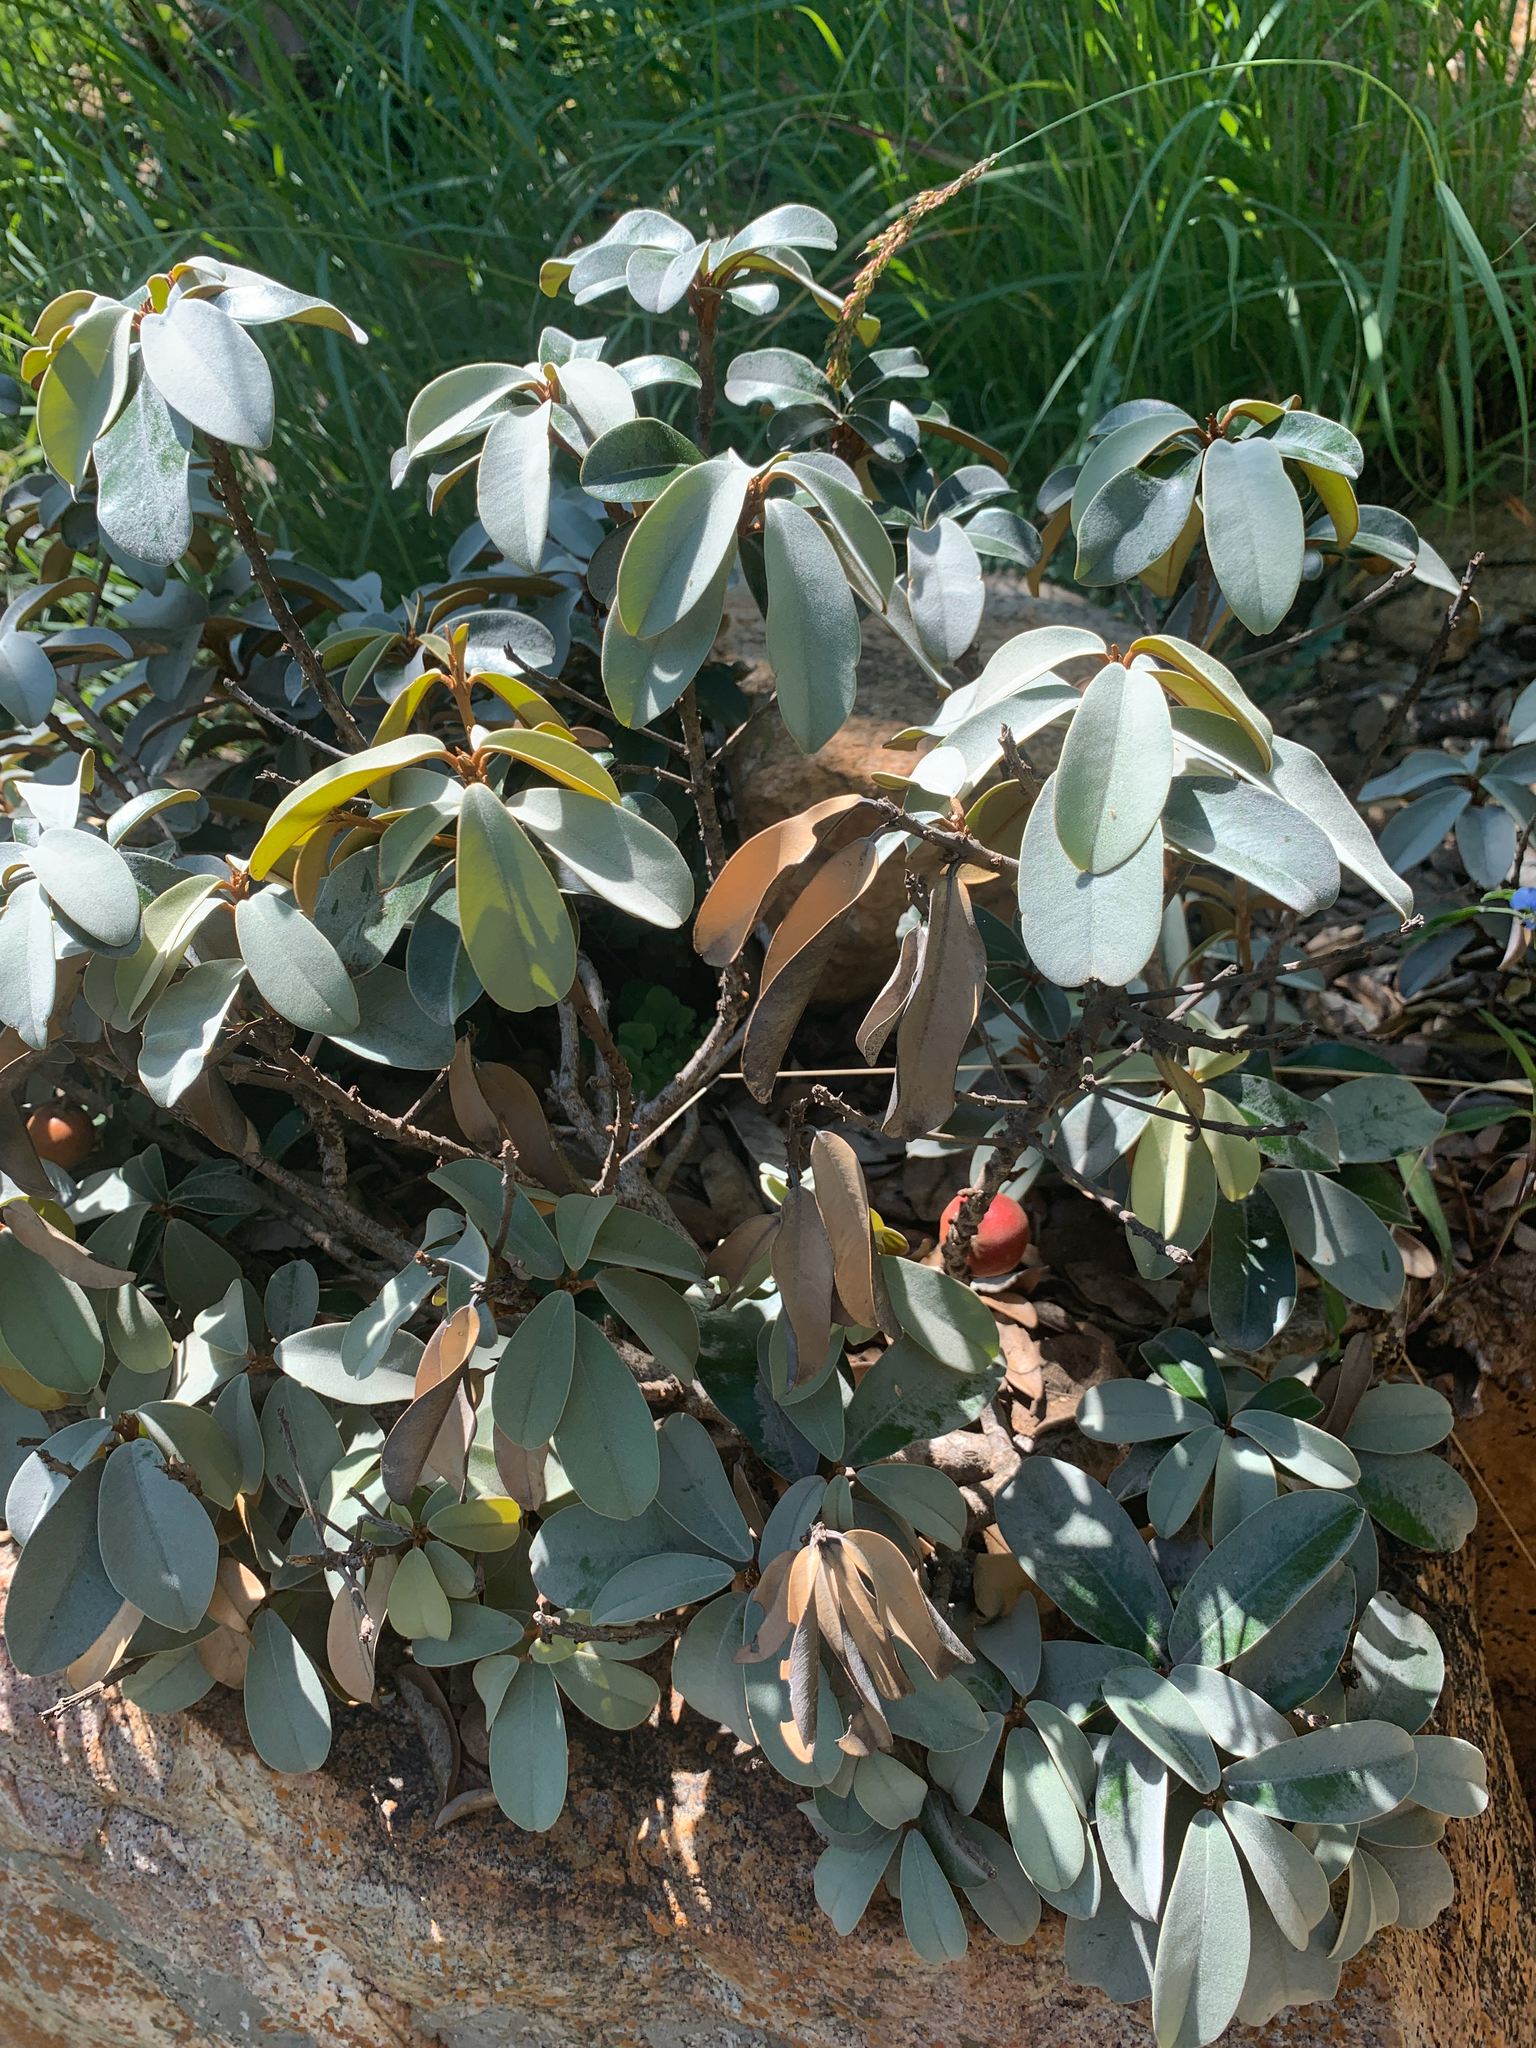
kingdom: Plantae
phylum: Tracheophyta
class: Magnoliopsida
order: Ericales
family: Sapotaceae
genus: Englerophytum
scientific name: Englerophytum magalismontanum
